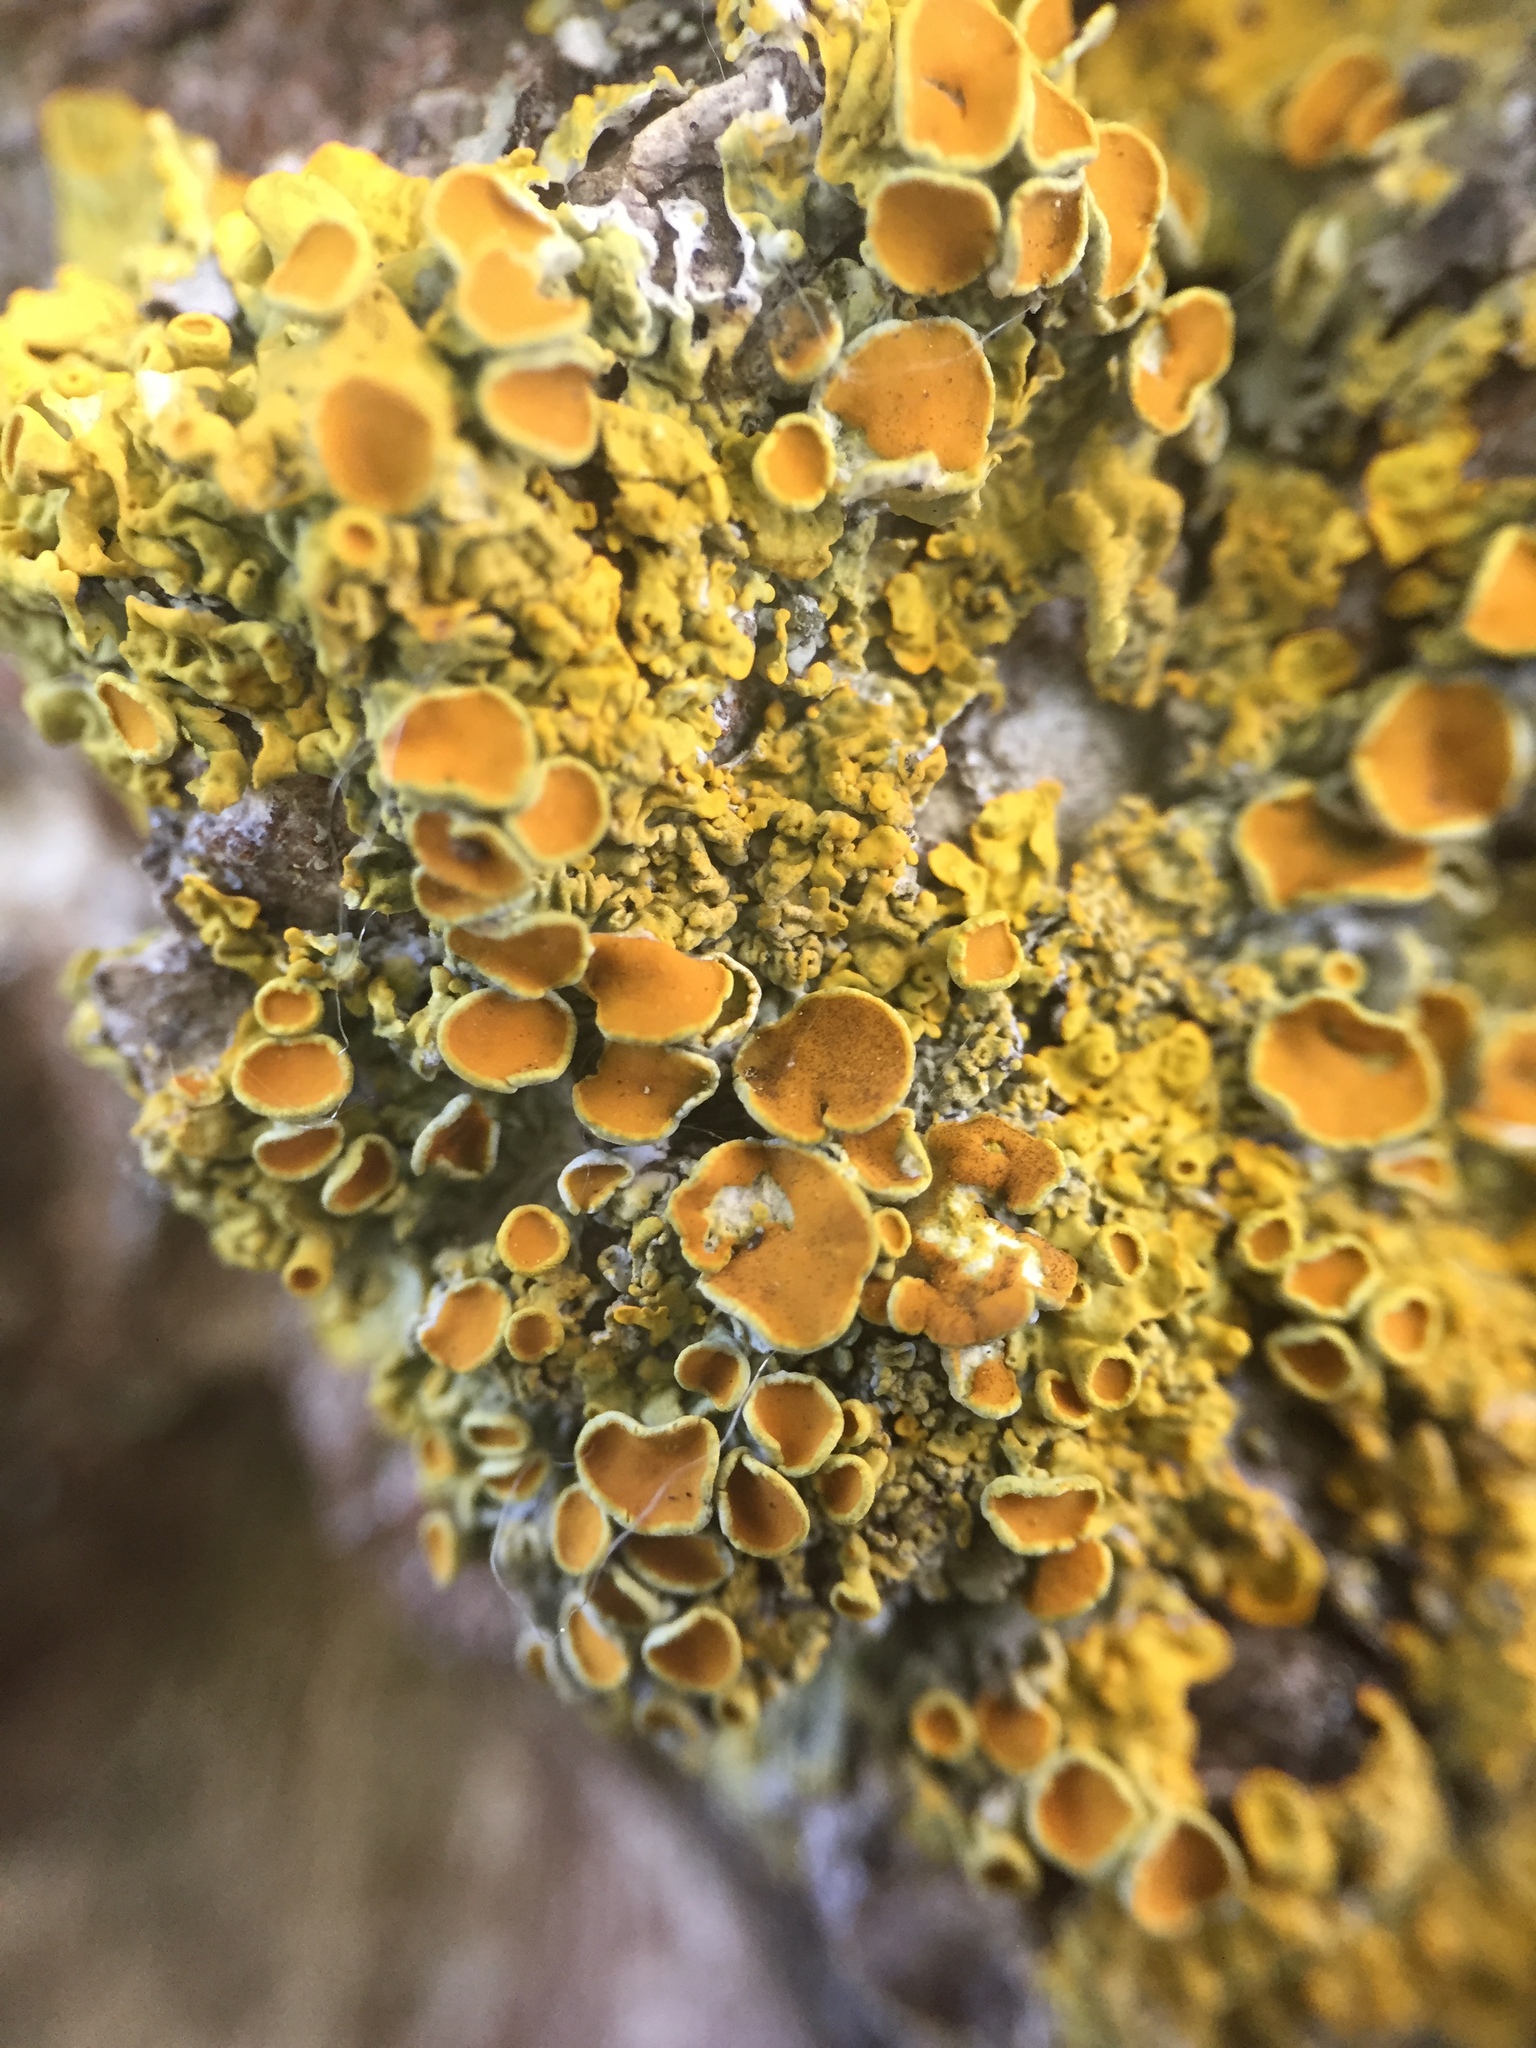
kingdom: Fungi
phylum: Ascomycota
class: Lecanoromycetes
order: Teloschistales
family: Teloschistaceae
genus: Xanthoria
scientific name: Xanthoria parietina
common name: Common orange lichen
